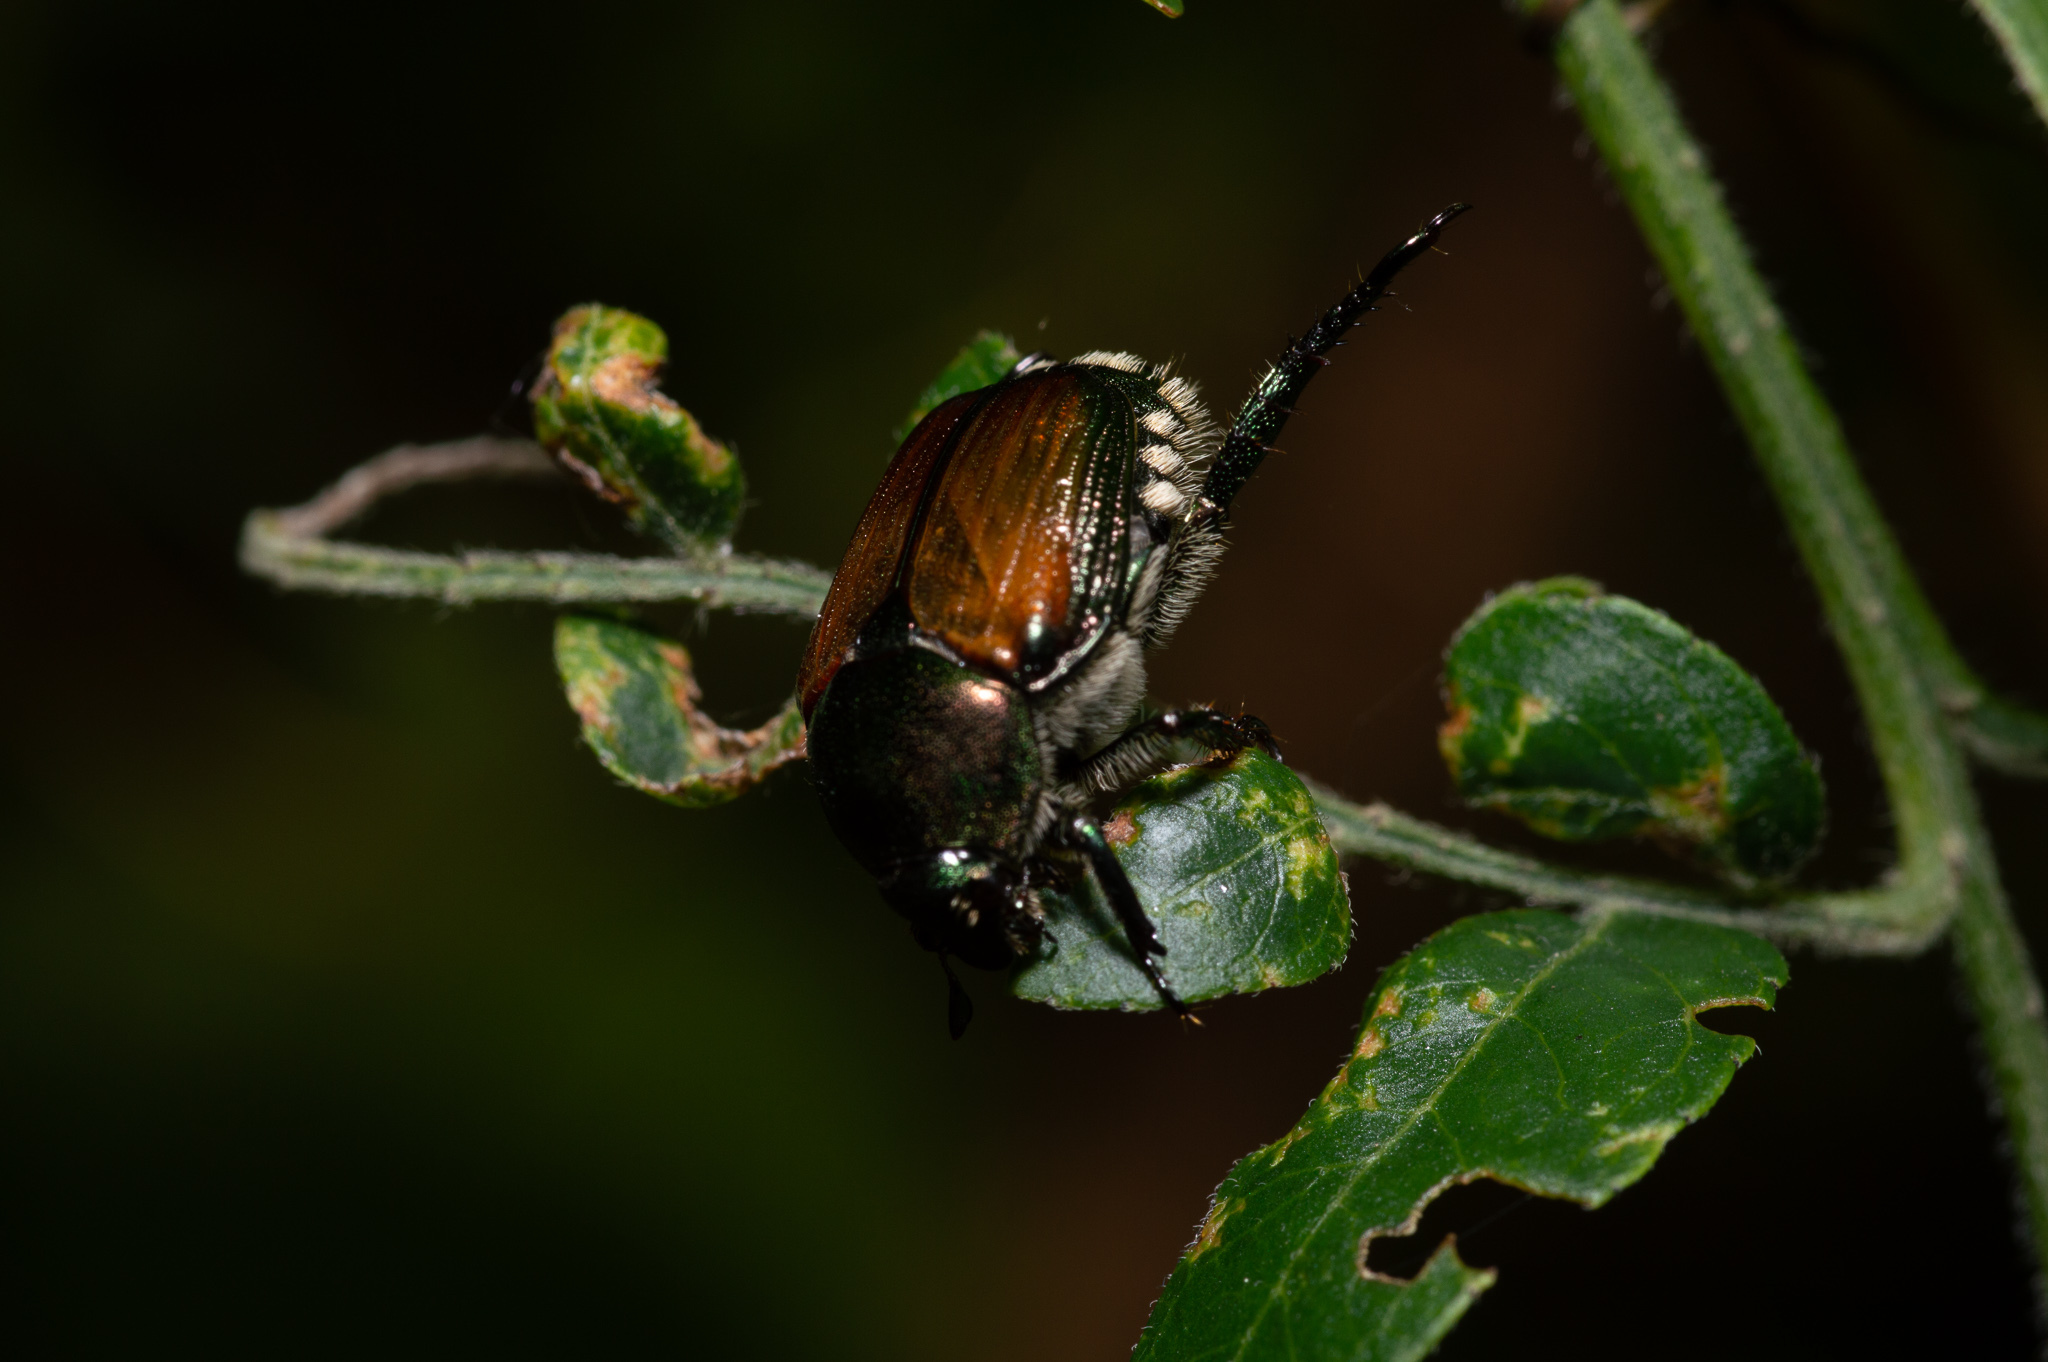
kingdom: Animalia
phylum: Arthropoda
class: Insecta
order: Coleoptera
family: Scarabaeidae
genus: Popillia
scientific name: Popillia japonica
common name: Japanese beetle
